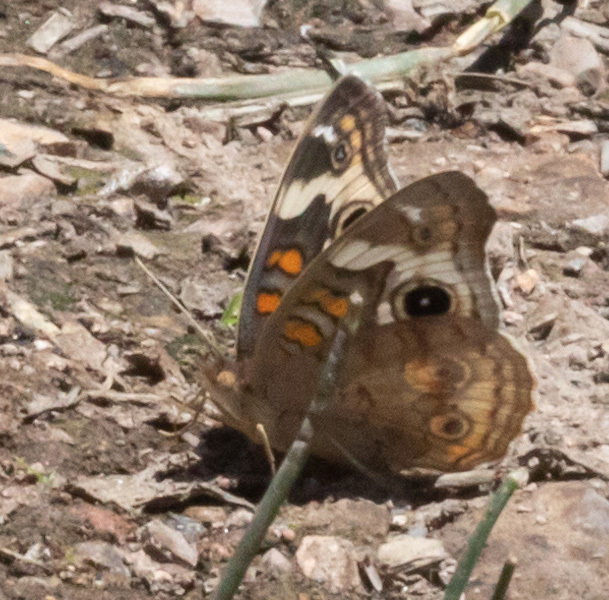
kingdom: Animalia
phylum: Arthropoda
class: Insecta
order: Lepidoptera
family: Nymphalidae
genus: Junonia
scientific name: Junonia grisea
